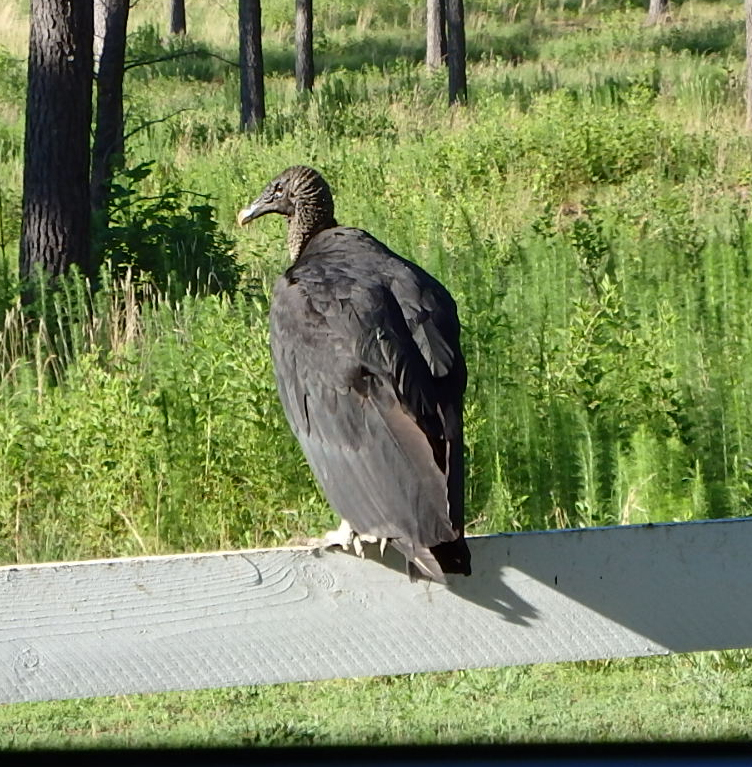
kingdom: Animalia
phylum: Chordata
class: Aves
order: Accipitriformes
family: Cathartidae
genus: Coragyps
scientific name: Coragyps atratus
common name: Black vulture
